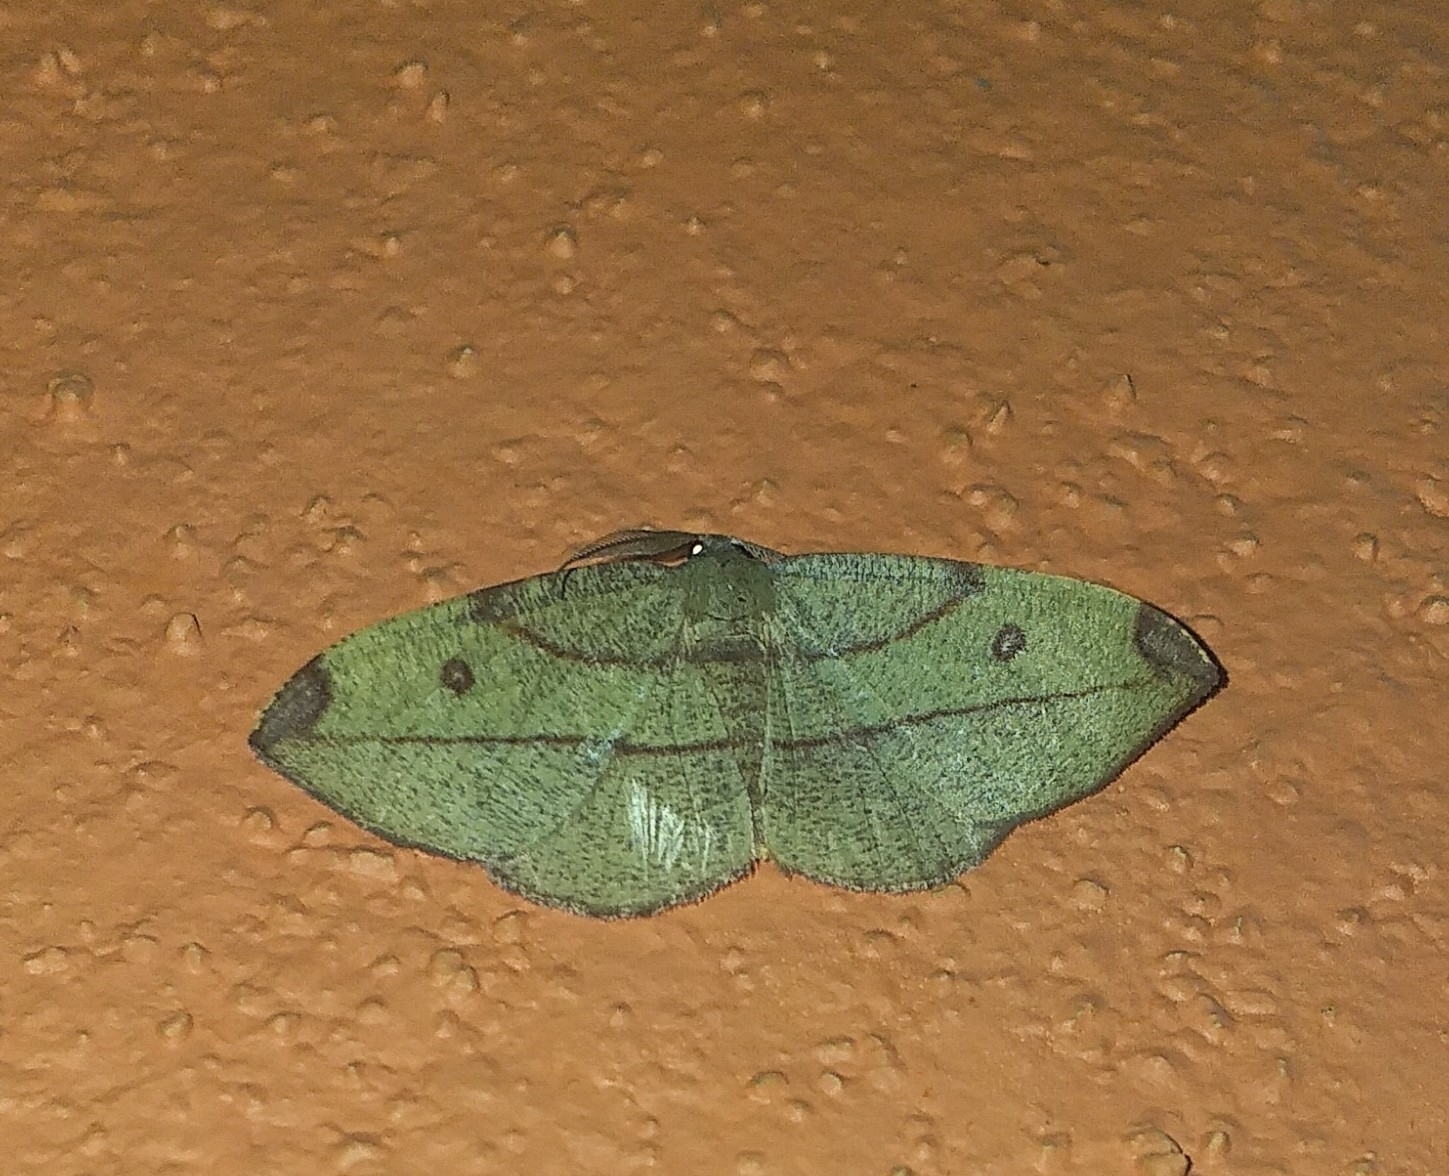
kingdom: Animalia
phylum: Arthropoda
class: Insecta
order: Lepidoptera
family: Geometridae
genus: Hypochrosis
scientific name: Hypochrosis hyadaria
